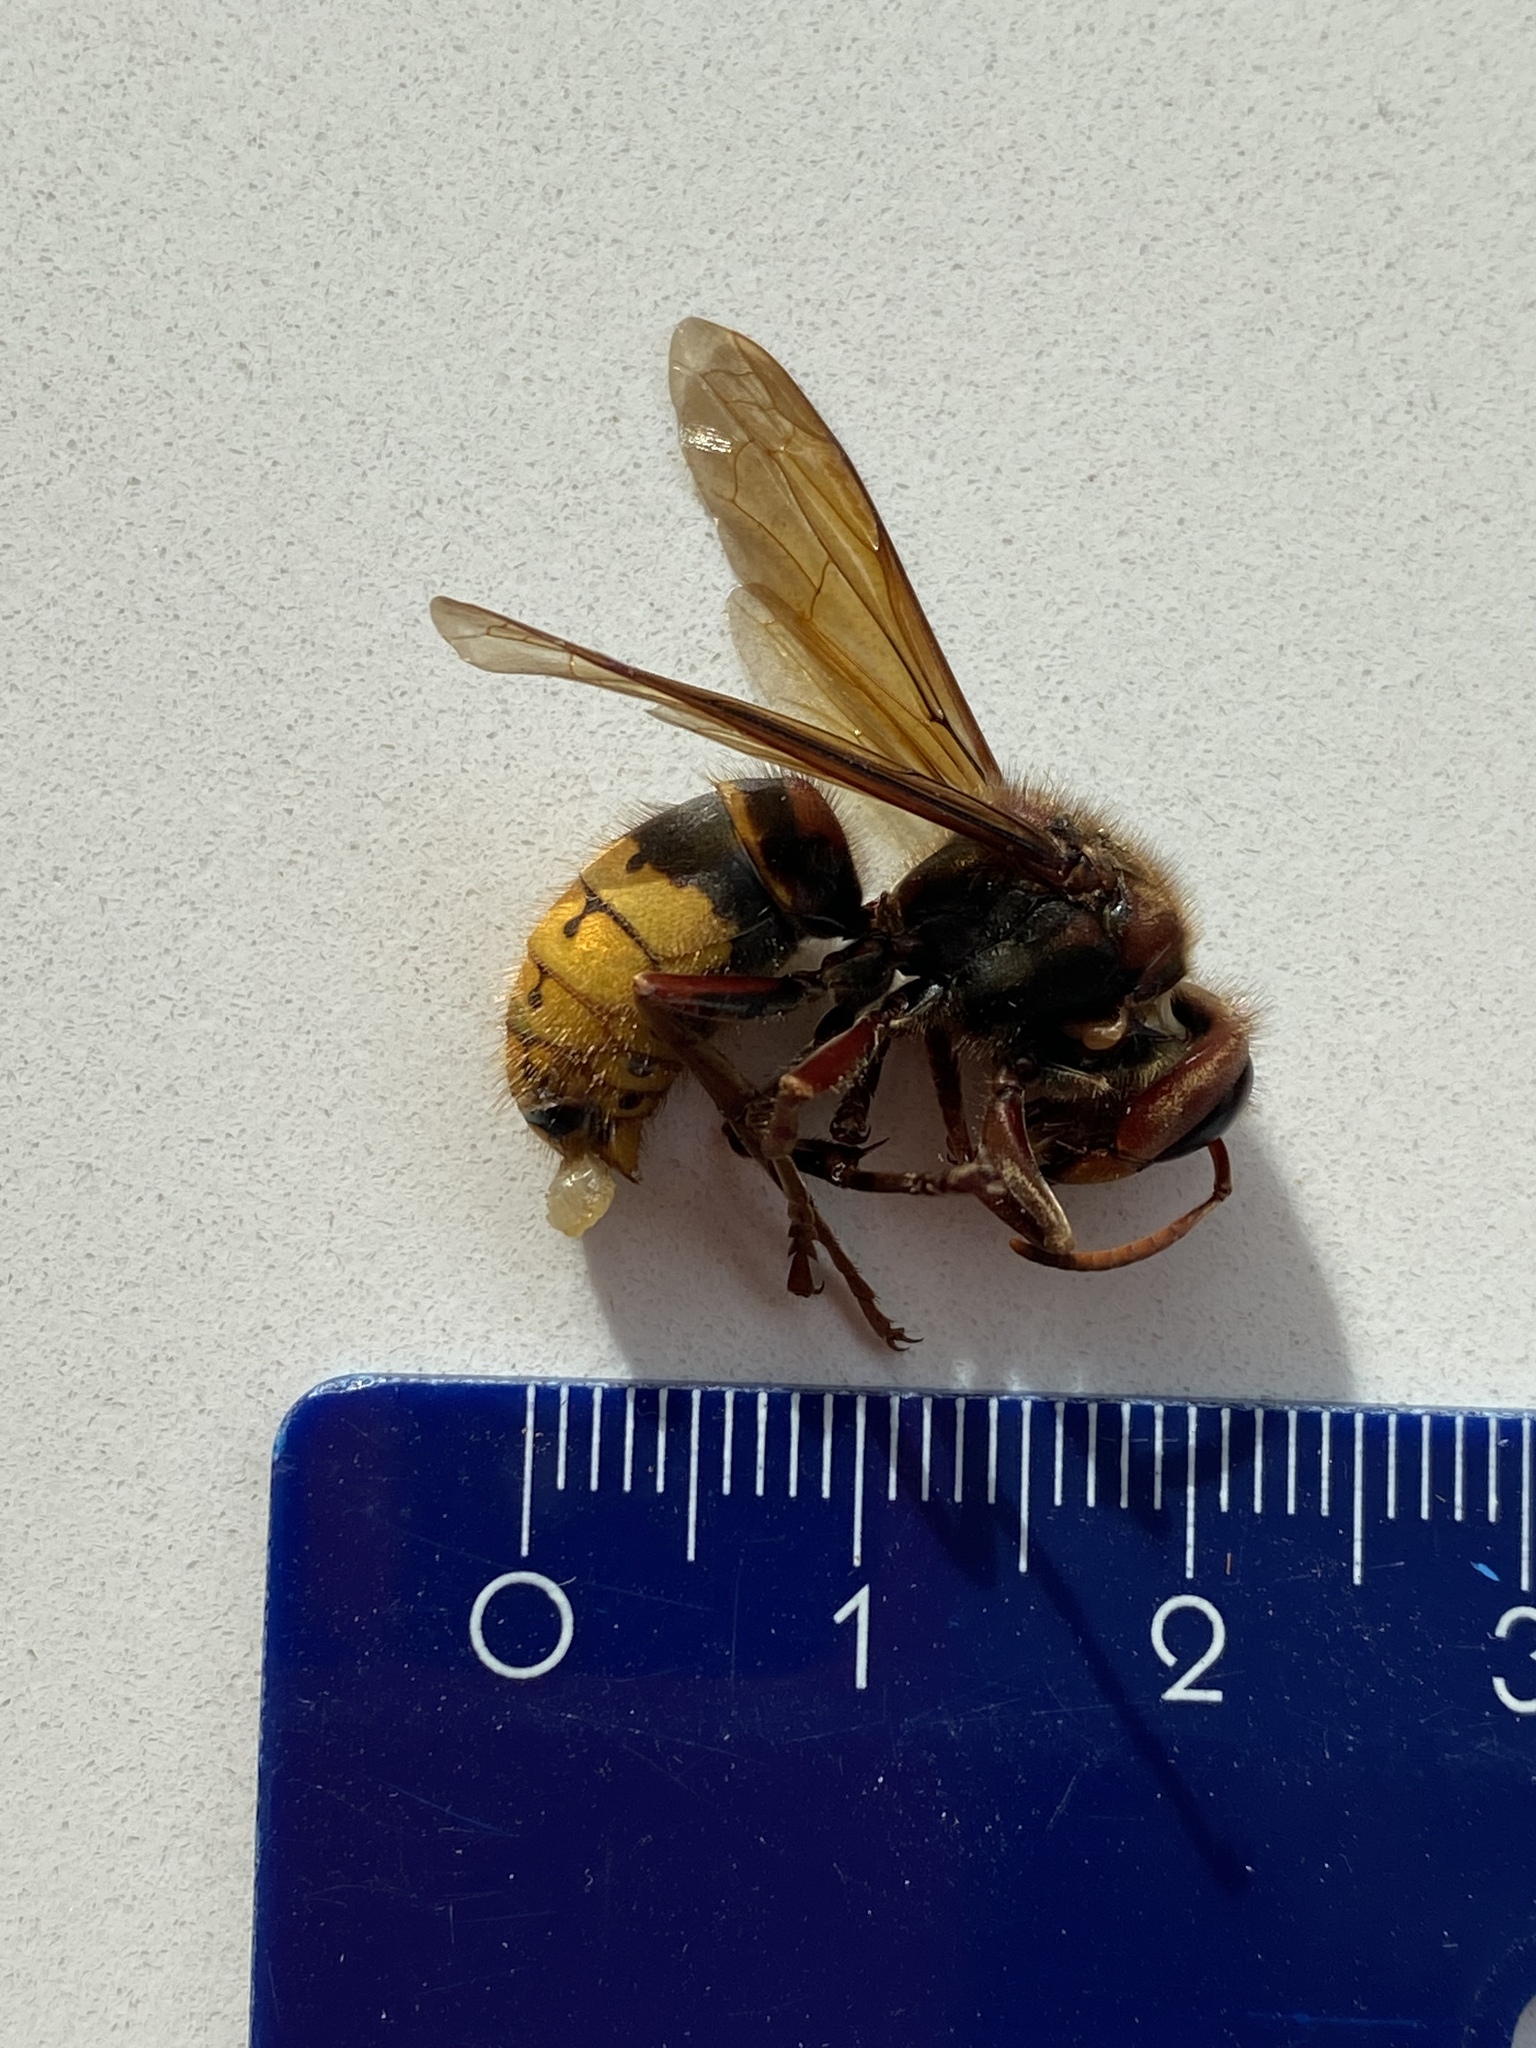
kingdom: Animalia
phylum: Arthropoda
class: Insecta
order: Hymenoptera
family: Vespidae
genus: Vespa
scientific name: Vespa crabro
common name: Hornet
